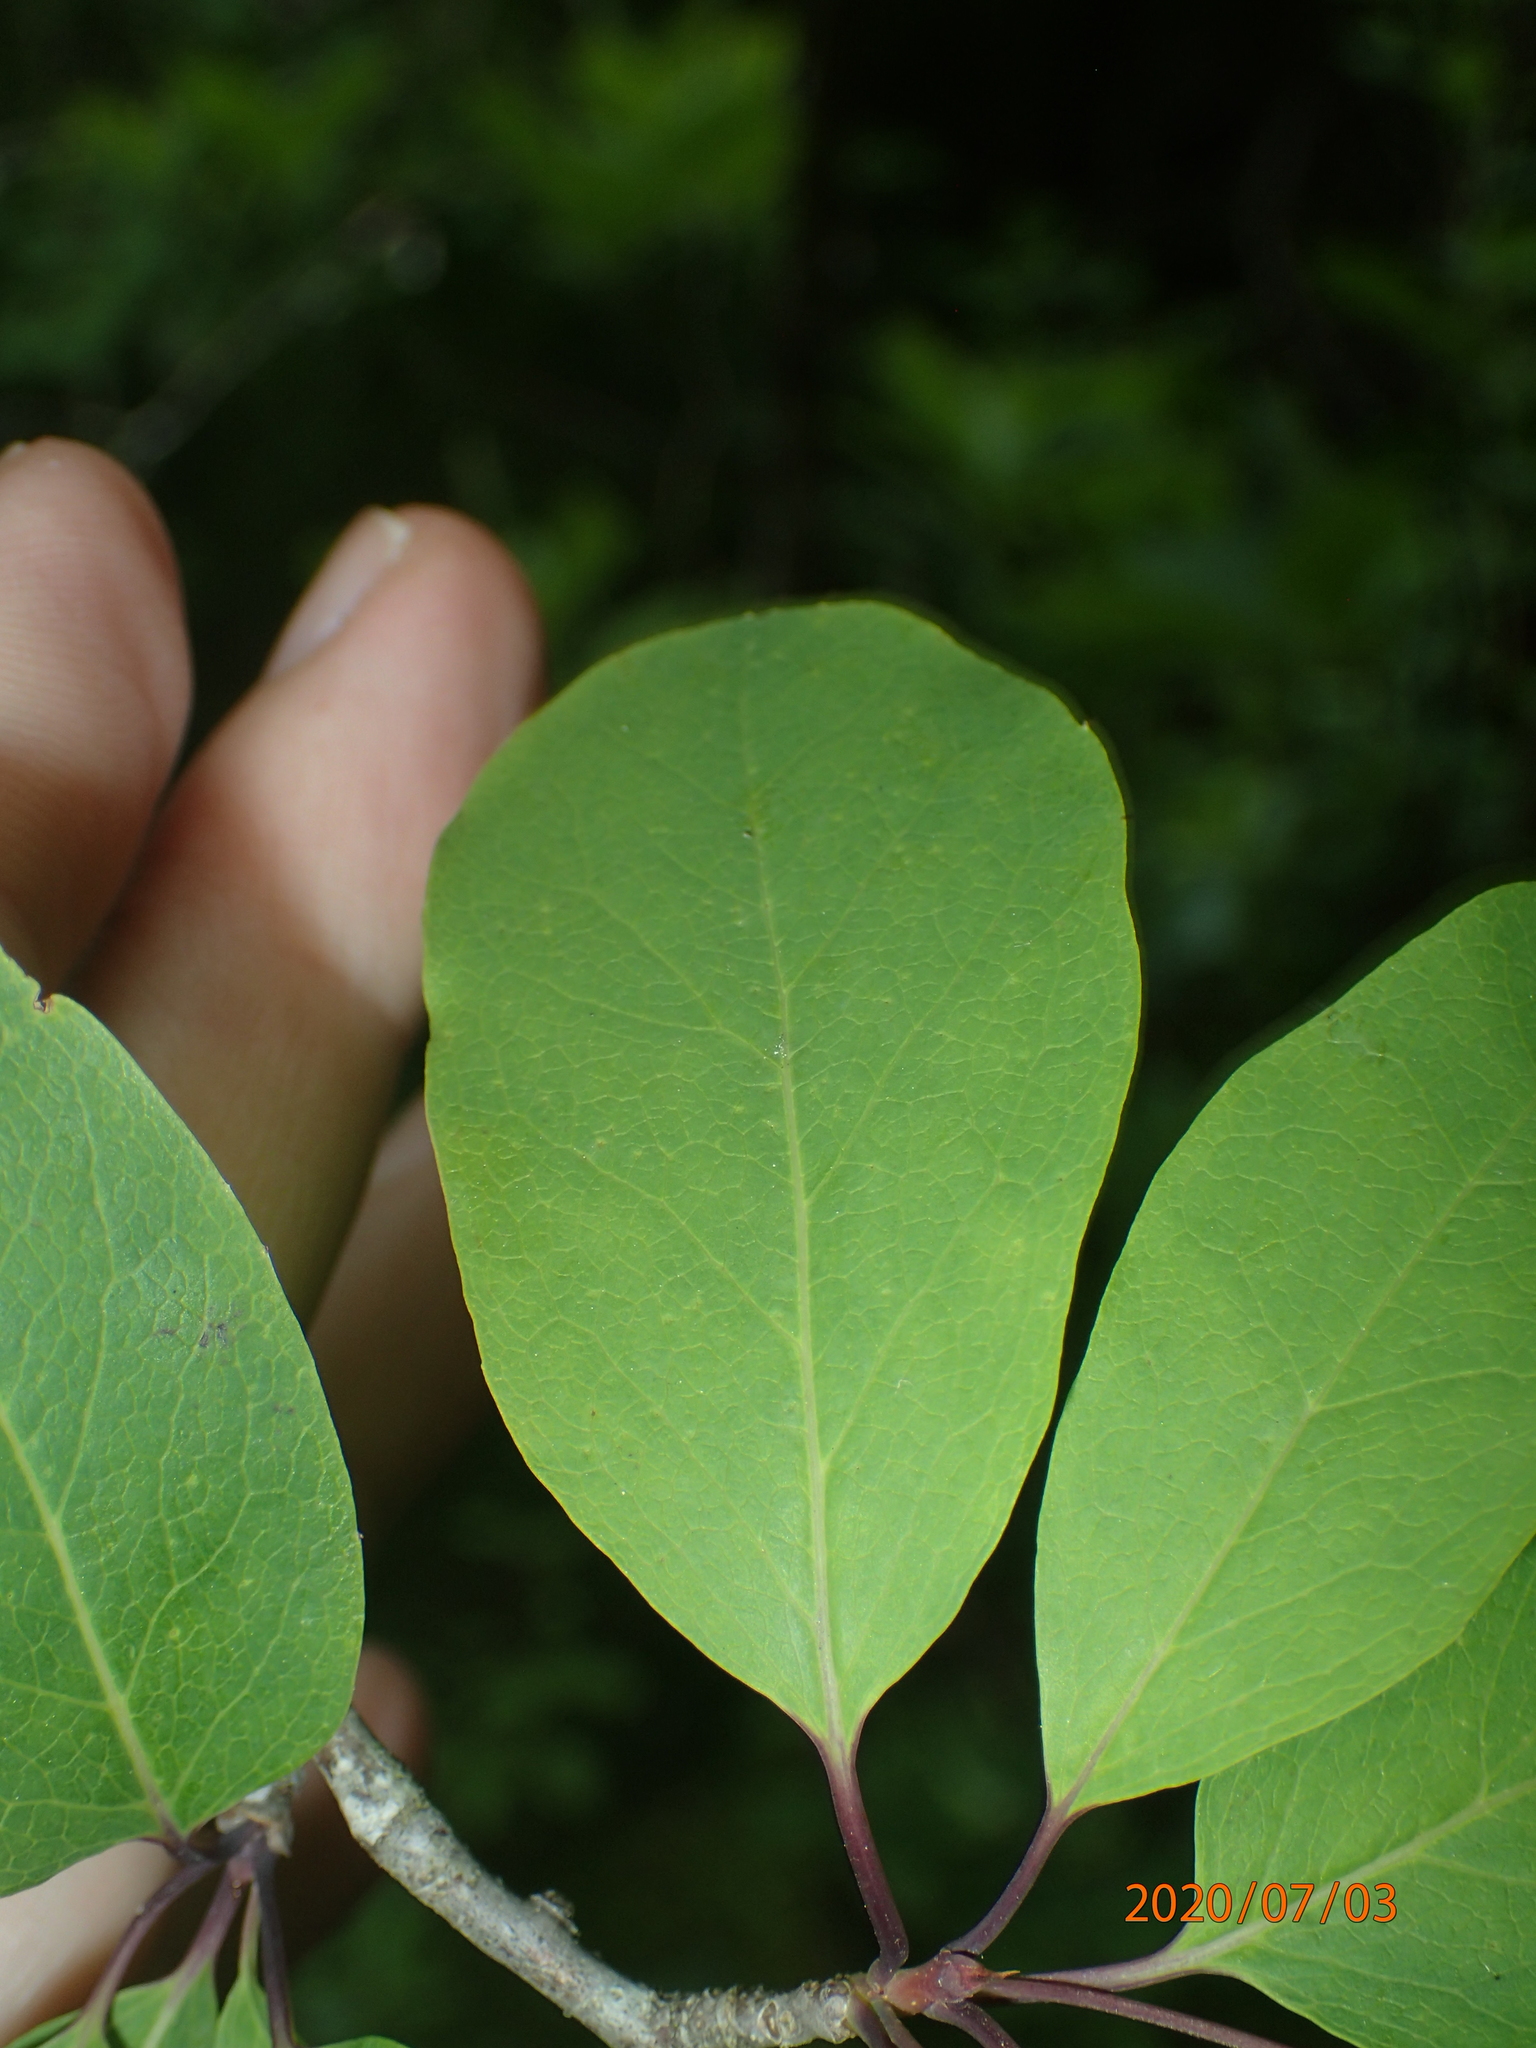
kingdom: Plantae
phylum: Tracheophyta
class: Magnoliopsida
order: Aquifoliales
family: Aquifoliaceae
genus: Ilex
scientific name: Ilex mucronata
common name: Catberry
